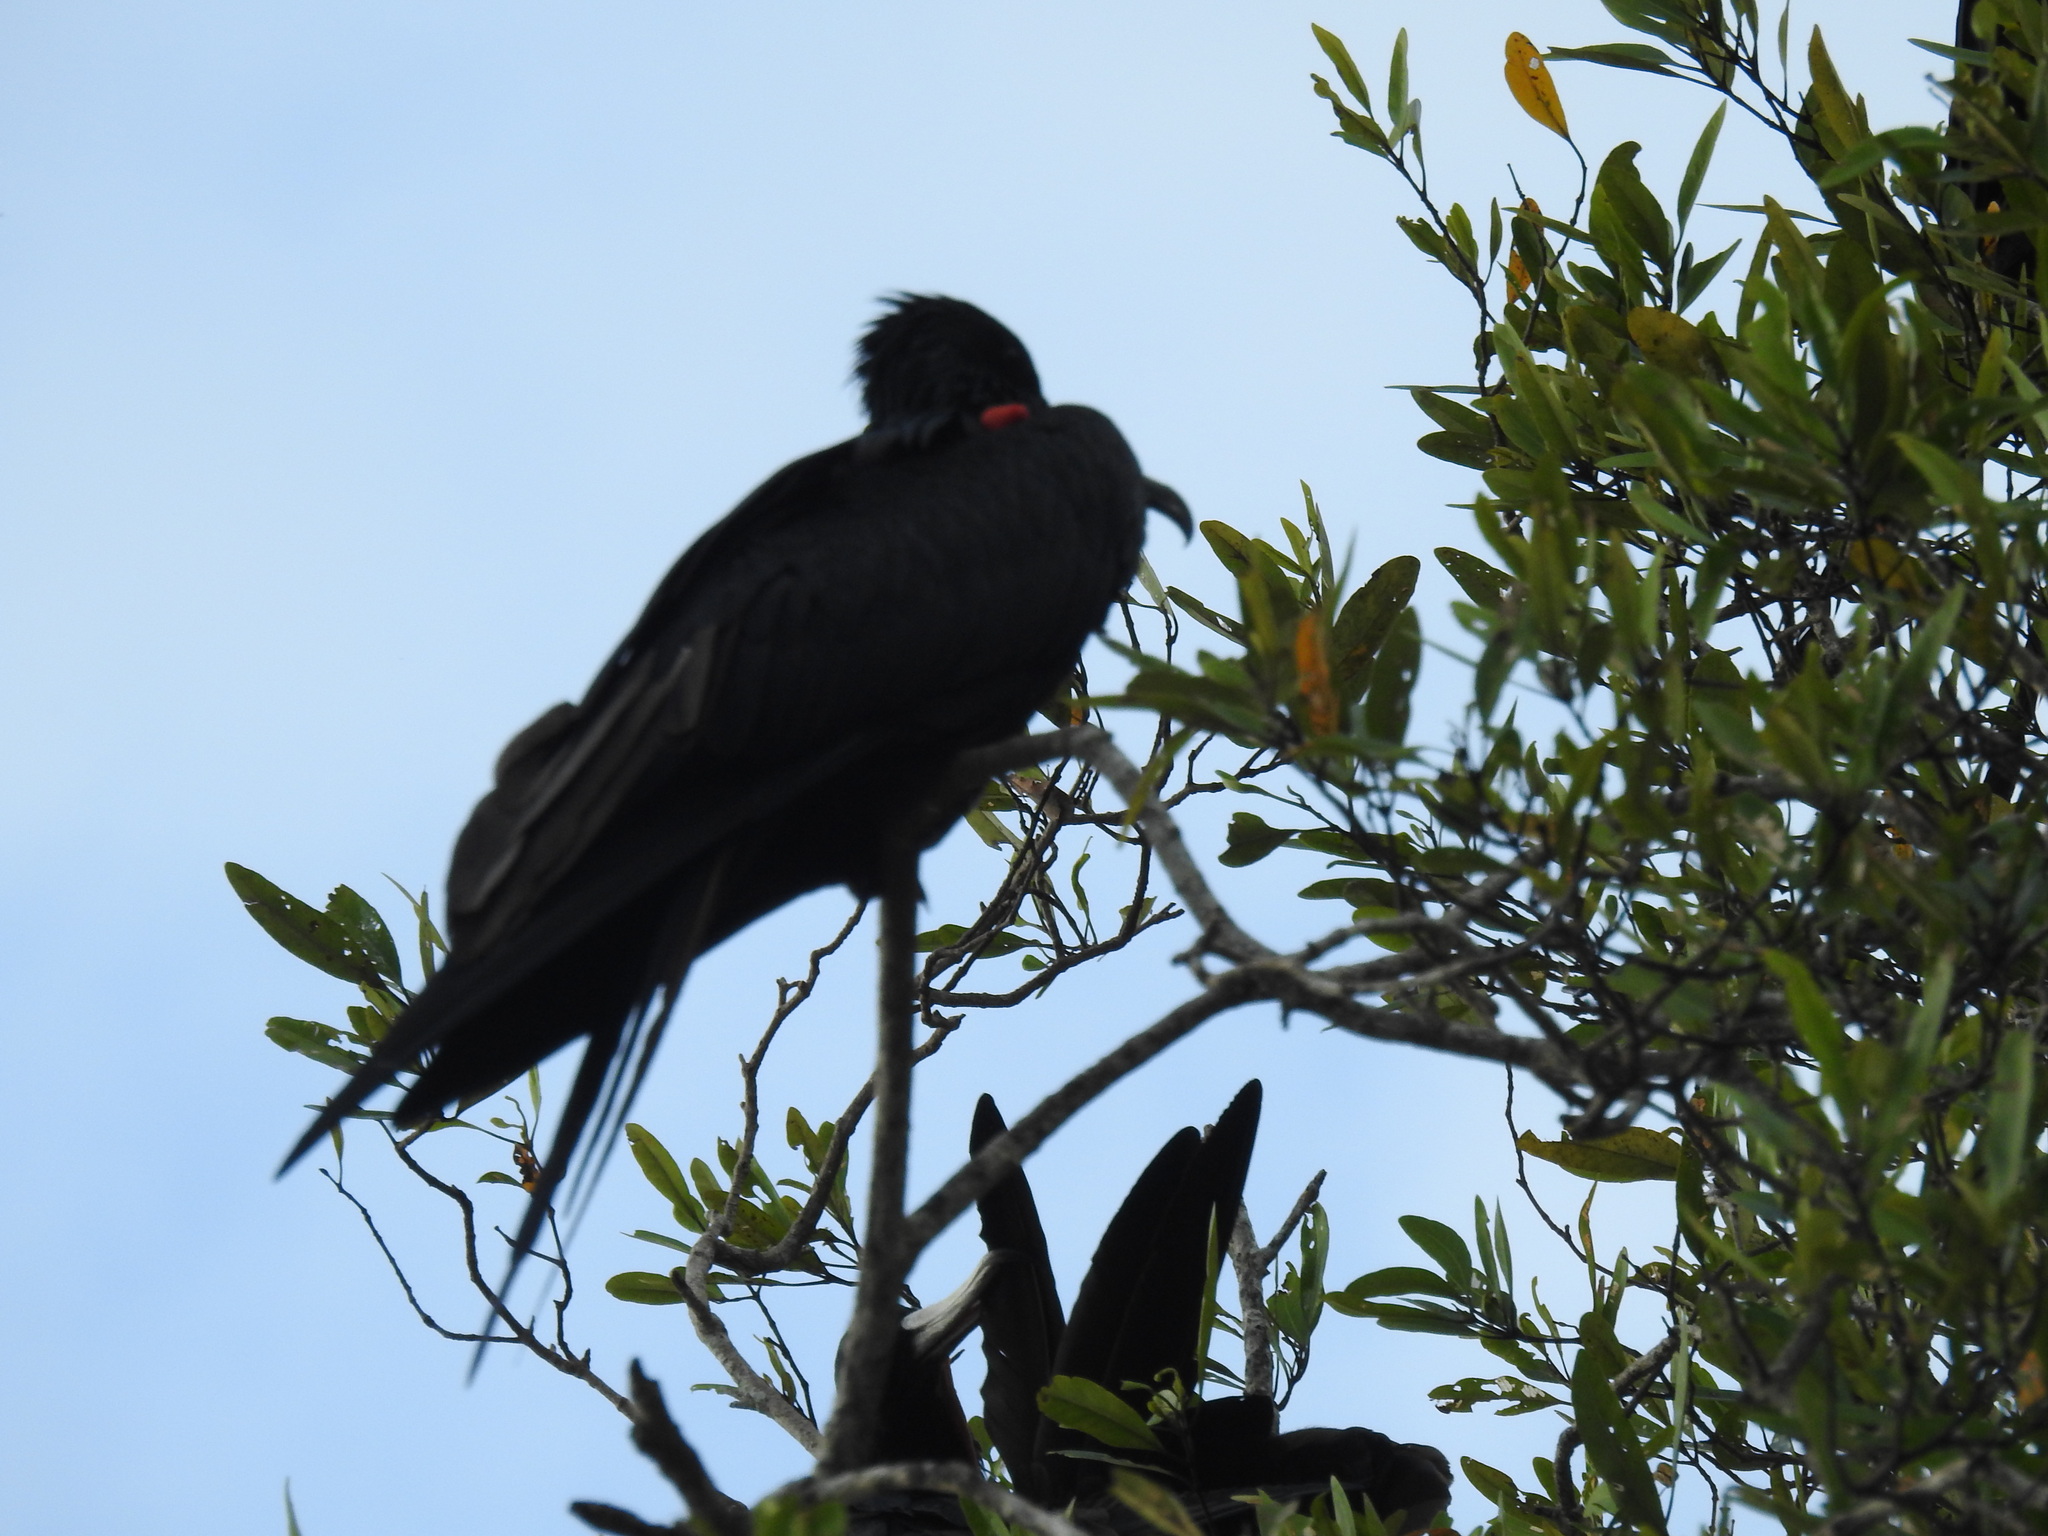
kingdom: Animalia
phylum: Chordata
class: Aves
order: Suliformes
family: Fregatidae
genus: Fregata
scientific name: Fregata magnificens
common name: Magnificent frigatebird
